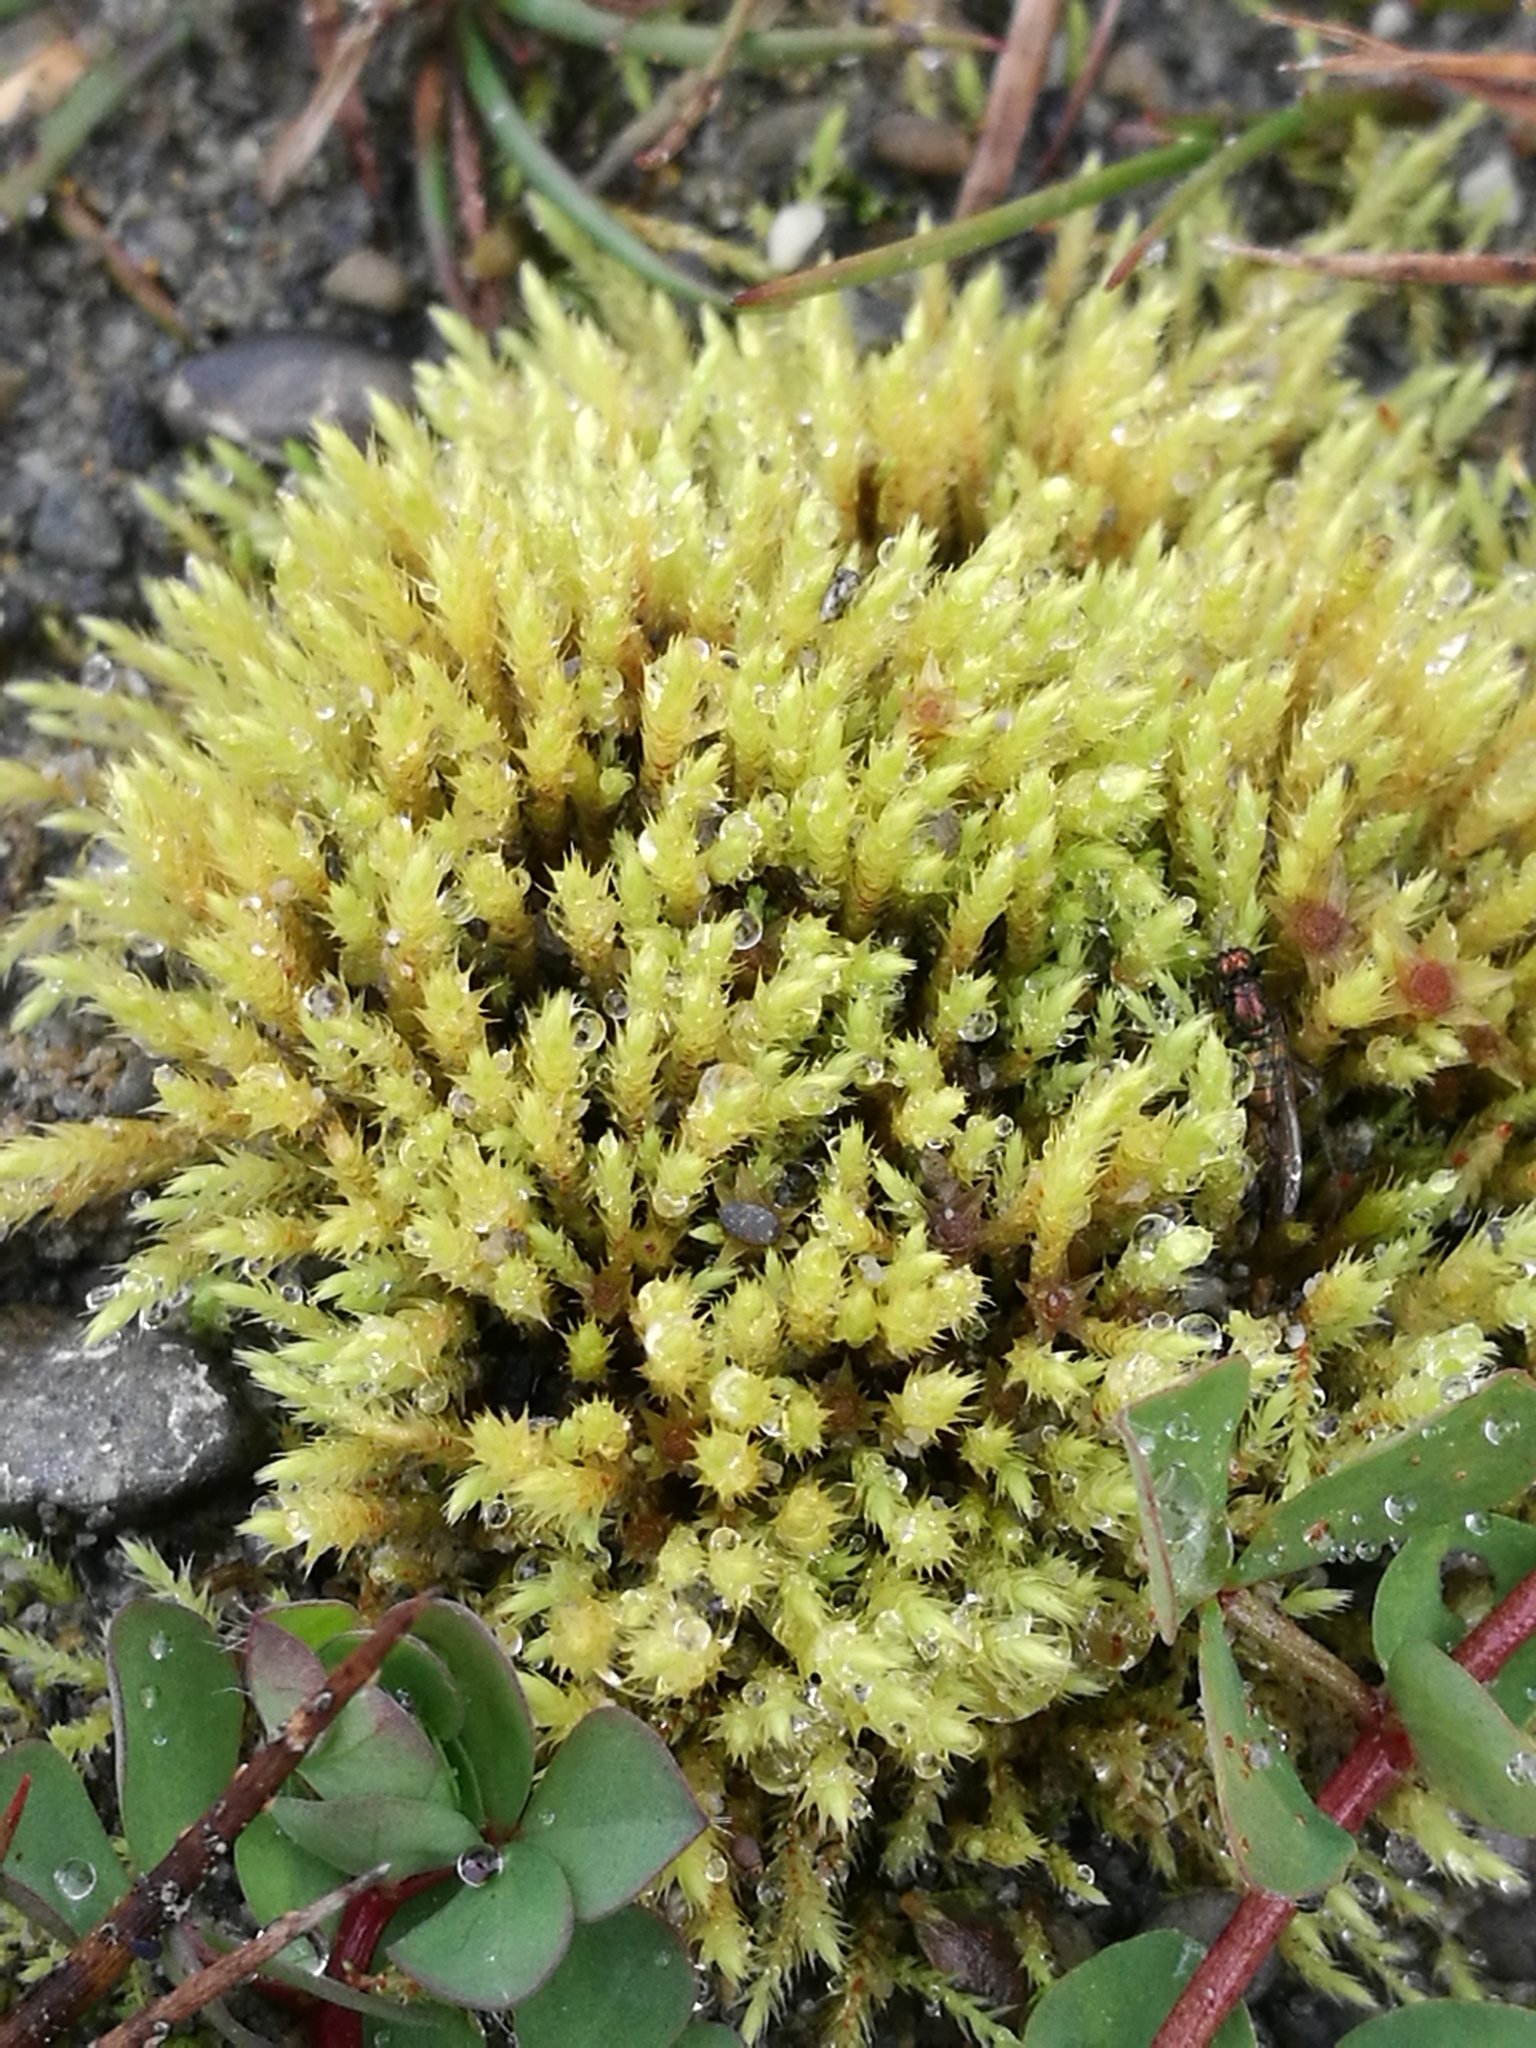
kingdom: Plantae
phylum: Tracheophyta
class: Magnoliopsida
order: Fabales
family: Fabaceae
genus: Lotus
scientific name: Lotus pedunculatus
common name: Greater birdsfoot-trefoil
